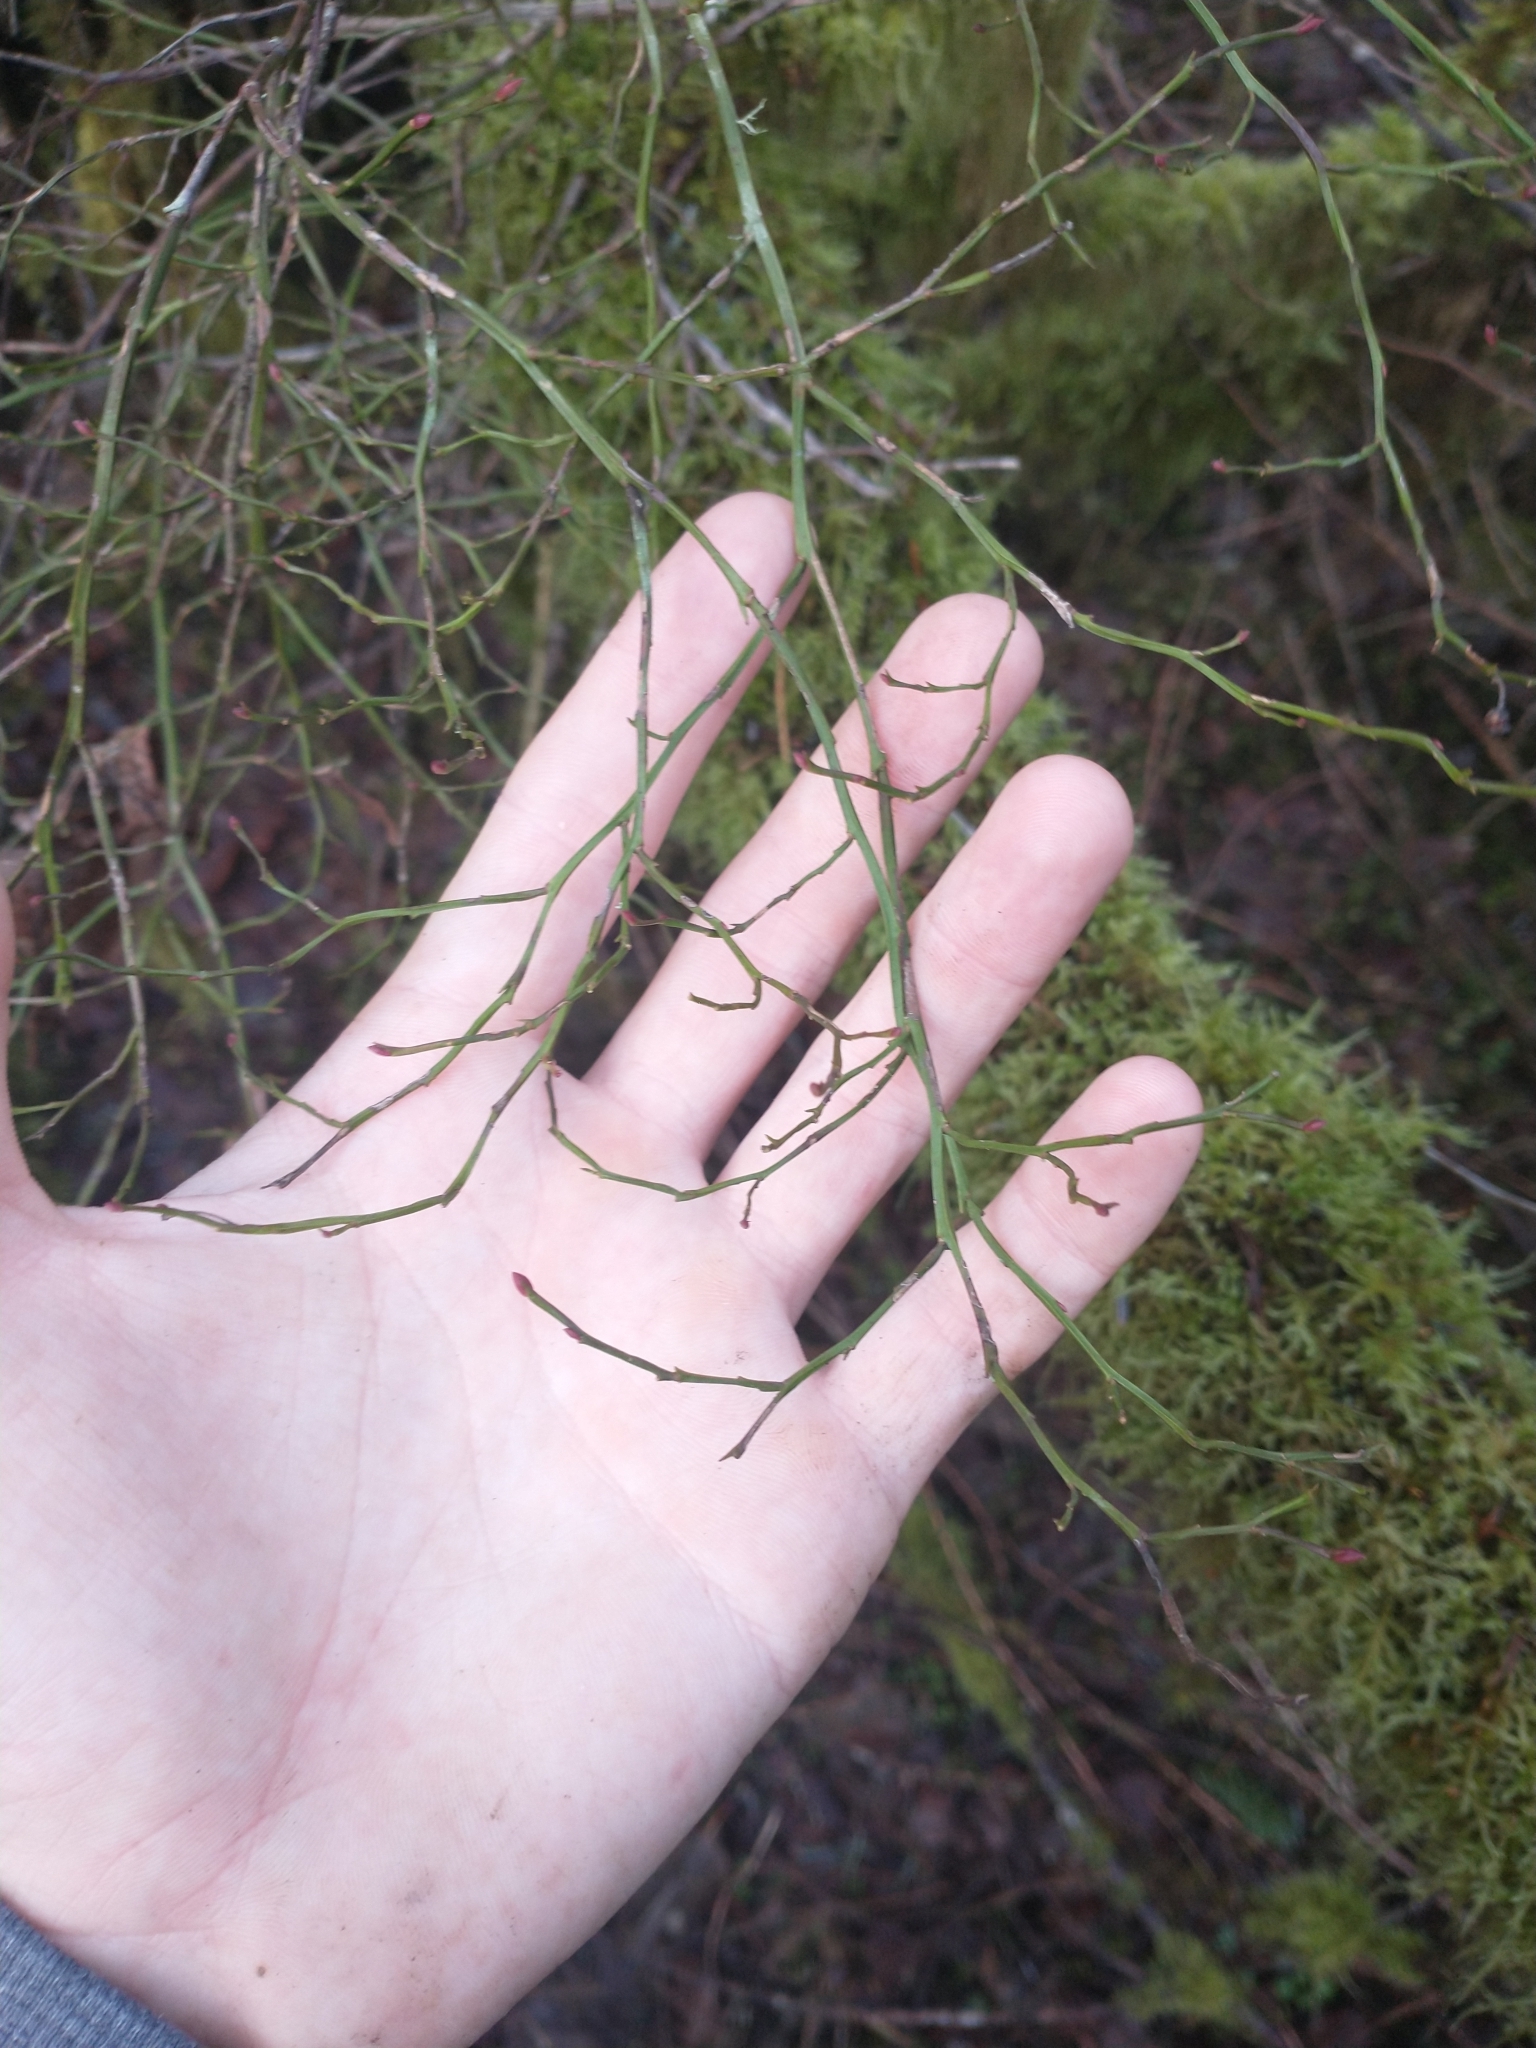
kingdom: Plantae
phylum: Tracheophyta
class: Magnoliopsida
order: Ericales
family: Ericaceae
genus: Vaccinium
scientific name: Vaccinium parvifolium
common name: Red-huckleberry
